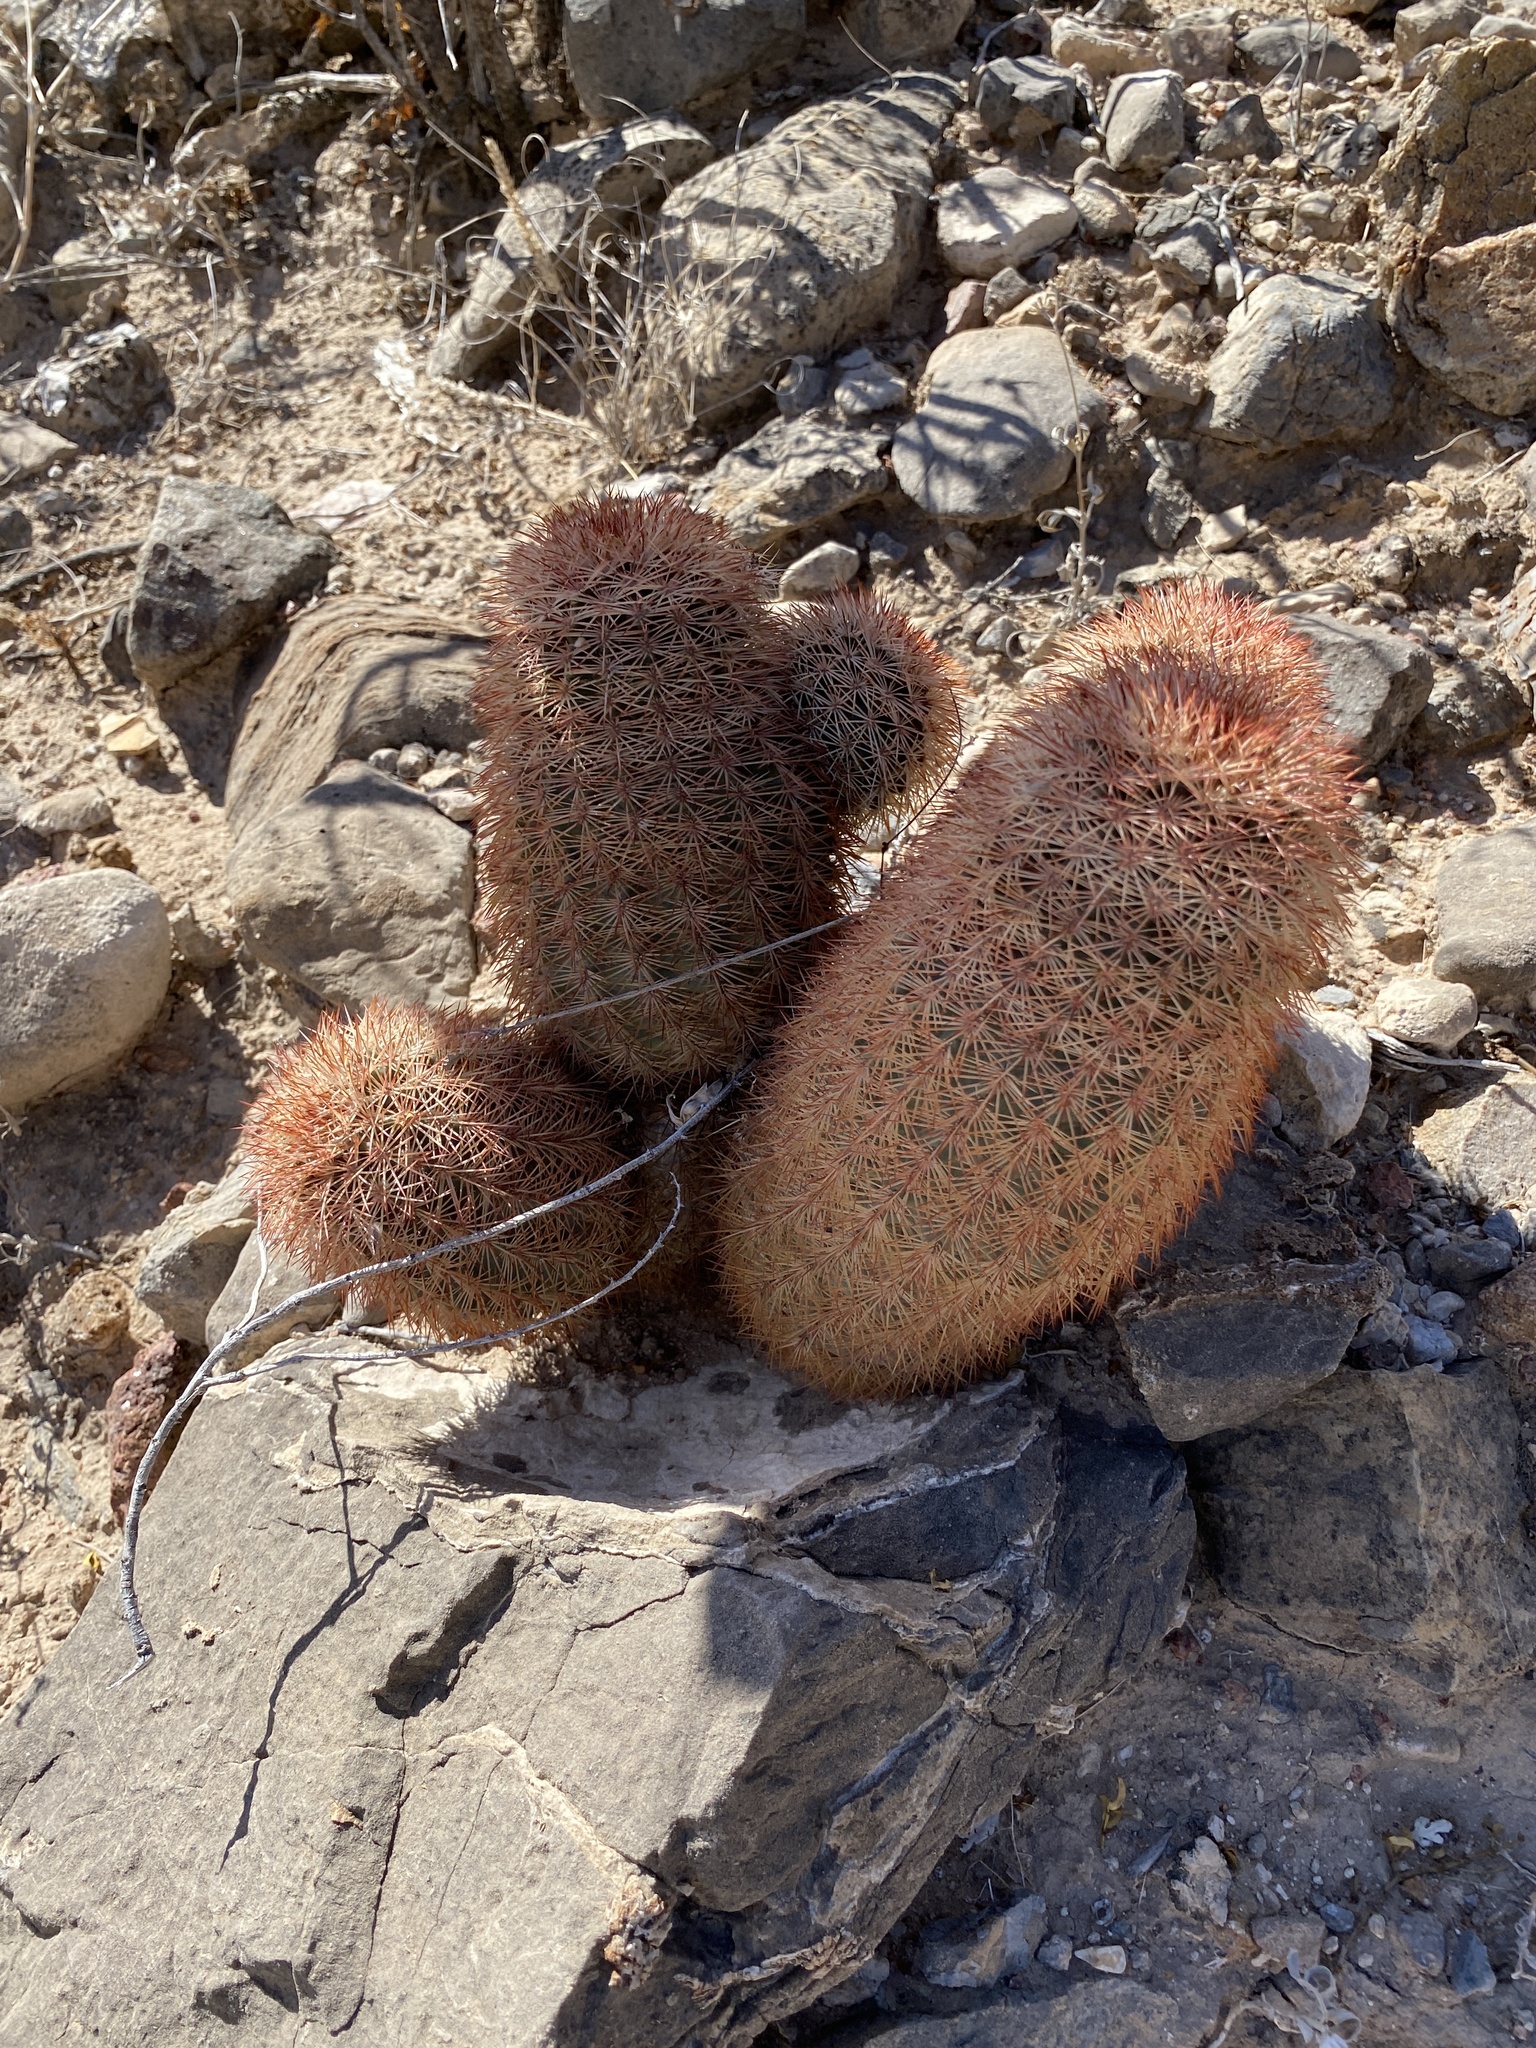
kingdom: Plantae
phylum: Tracheophyta
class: Magnoliopsida
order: Caryophyllales
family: Cactaceae
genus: Echinocereus
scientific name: Echinocereus dasyacanthus
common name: Spiny hedgehog cactus
